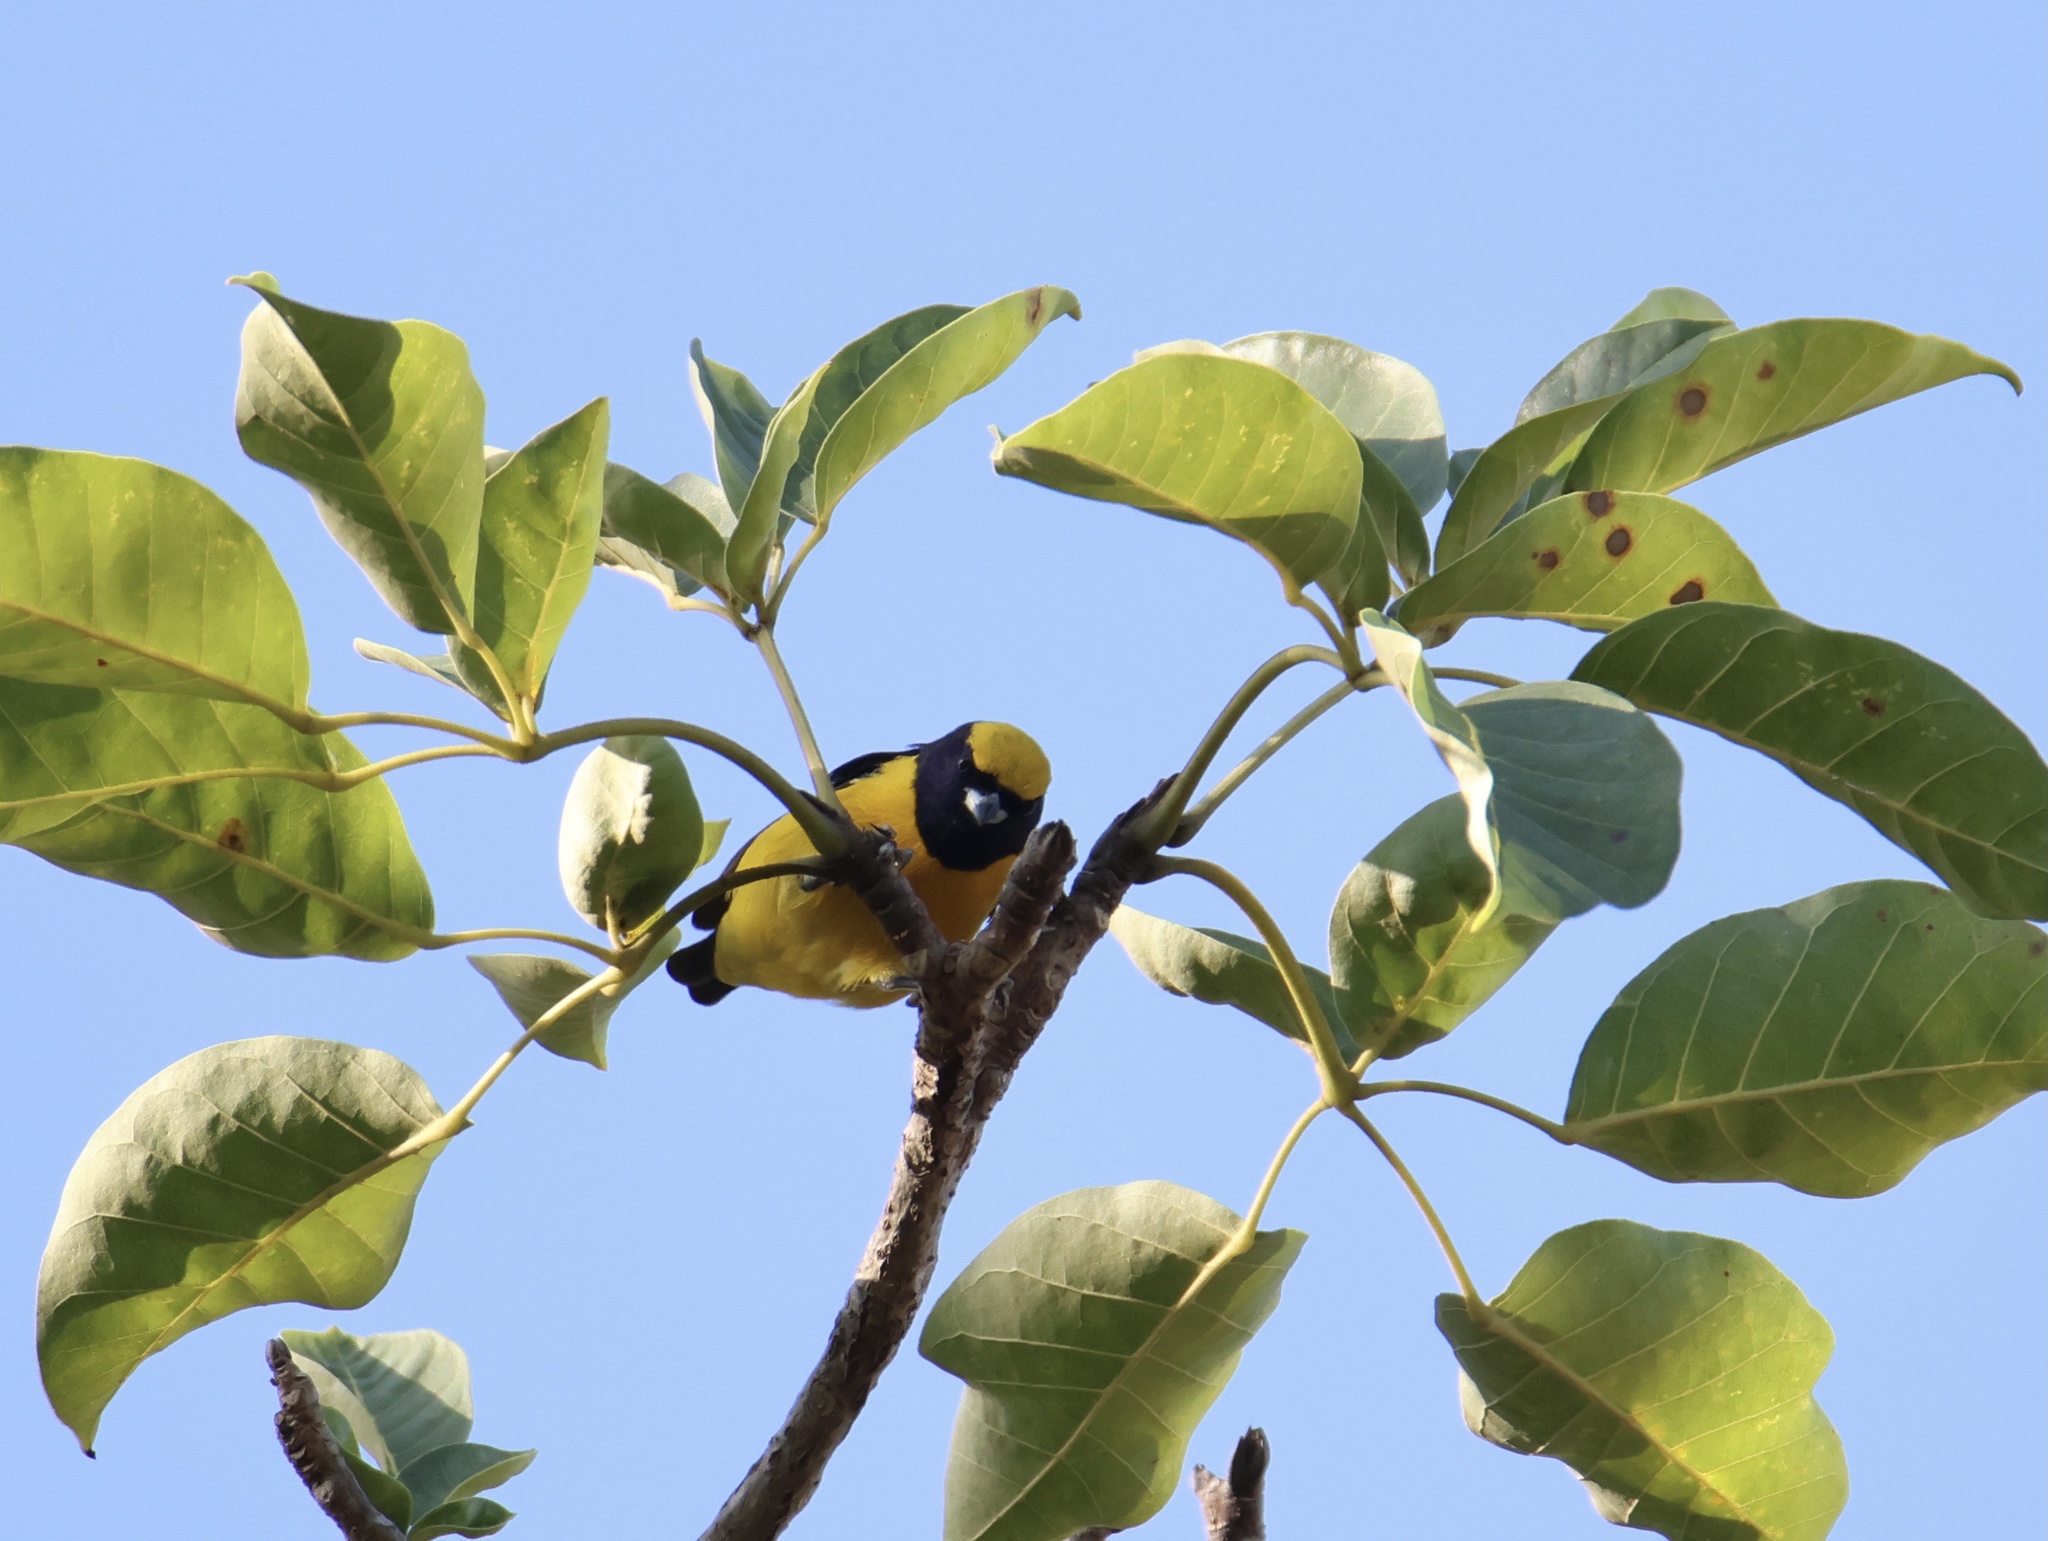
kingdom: Animalia
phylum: Chordata
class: Aves
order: Passeriformes
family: Fringillidae
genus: Euphonia
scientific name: Euphonia luteicapilla
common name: Yellow-crowned euphonia
